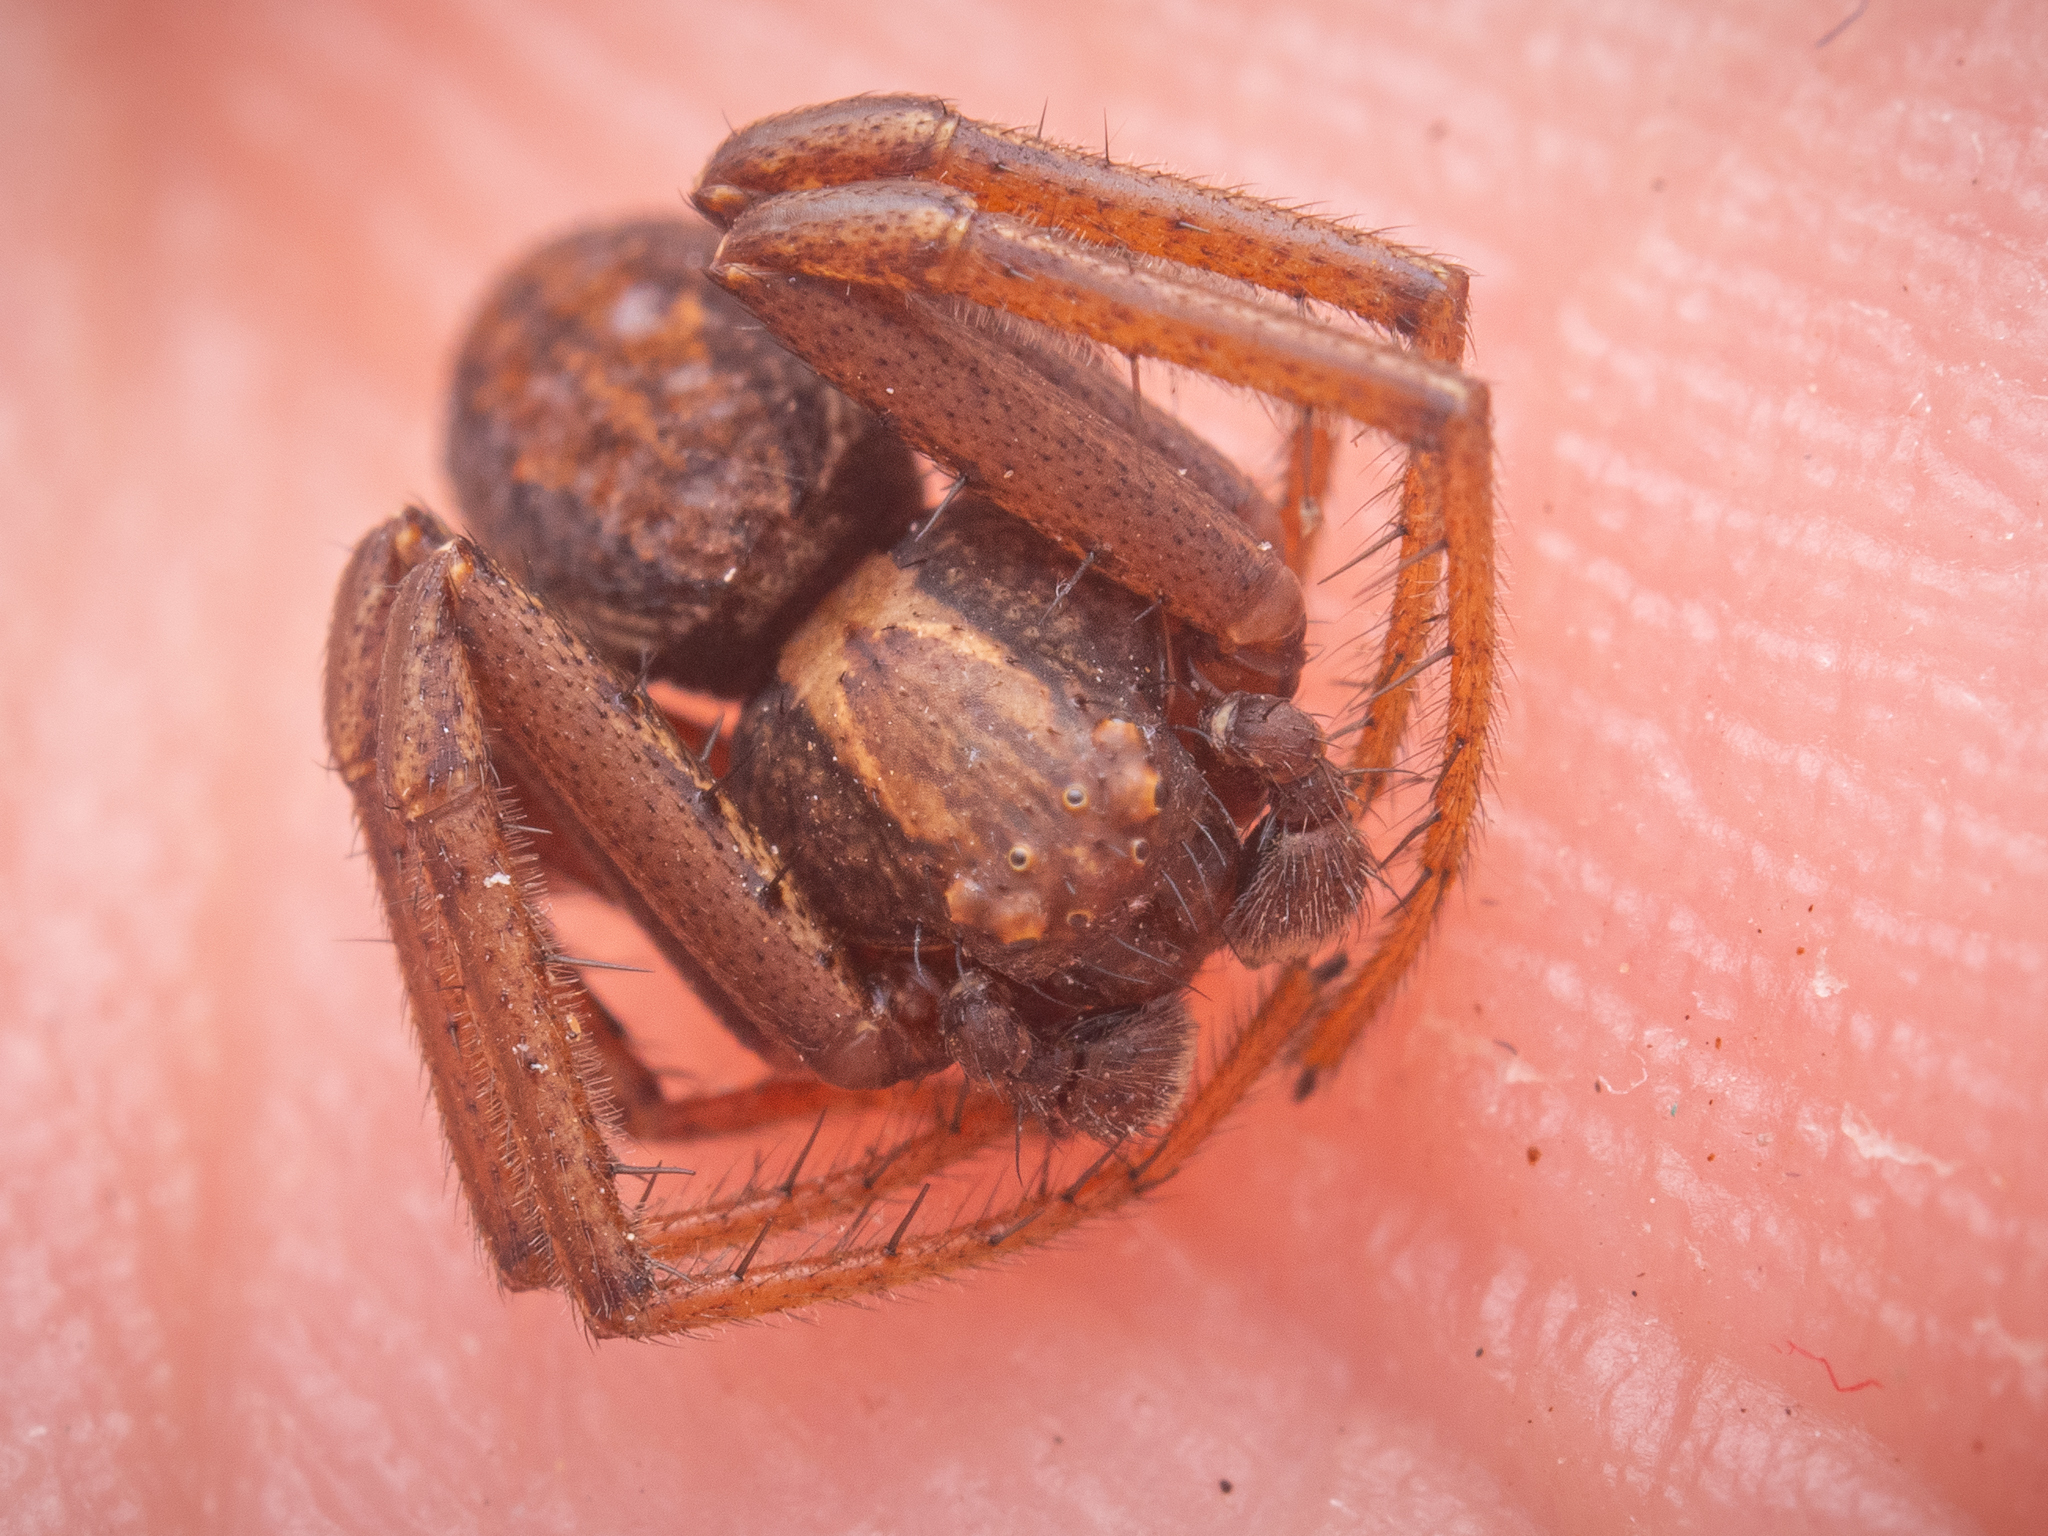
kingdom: Animalia
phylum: Arthropoda
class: Arachnida
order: Araneae
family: Thomisidae
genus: Spiracme
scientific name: Spiracme striatipes
